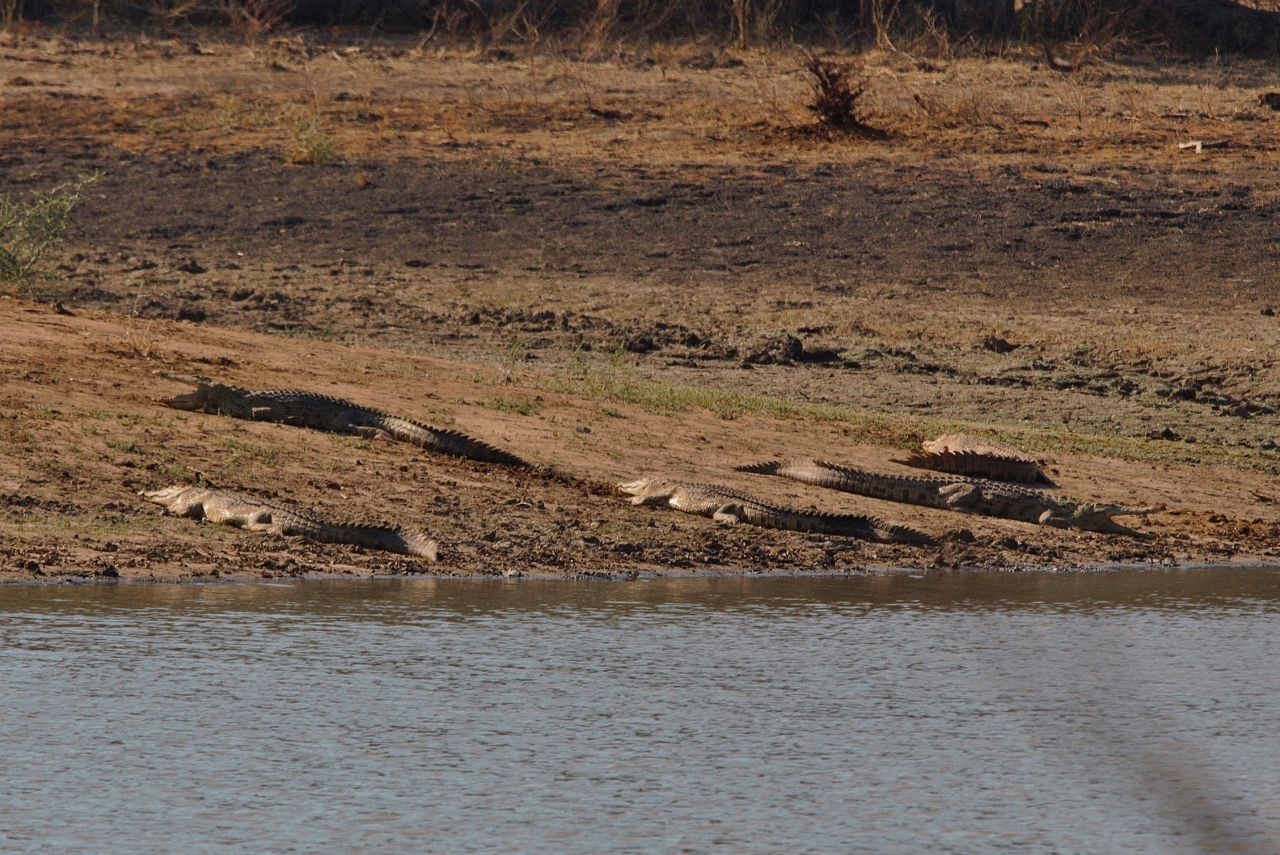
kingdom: Animalia
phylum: Chordata
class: Crocodylia
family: Crocodylidae
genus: Crocodylus
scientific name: Crocodylus niloticus
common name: Nile crocodile
